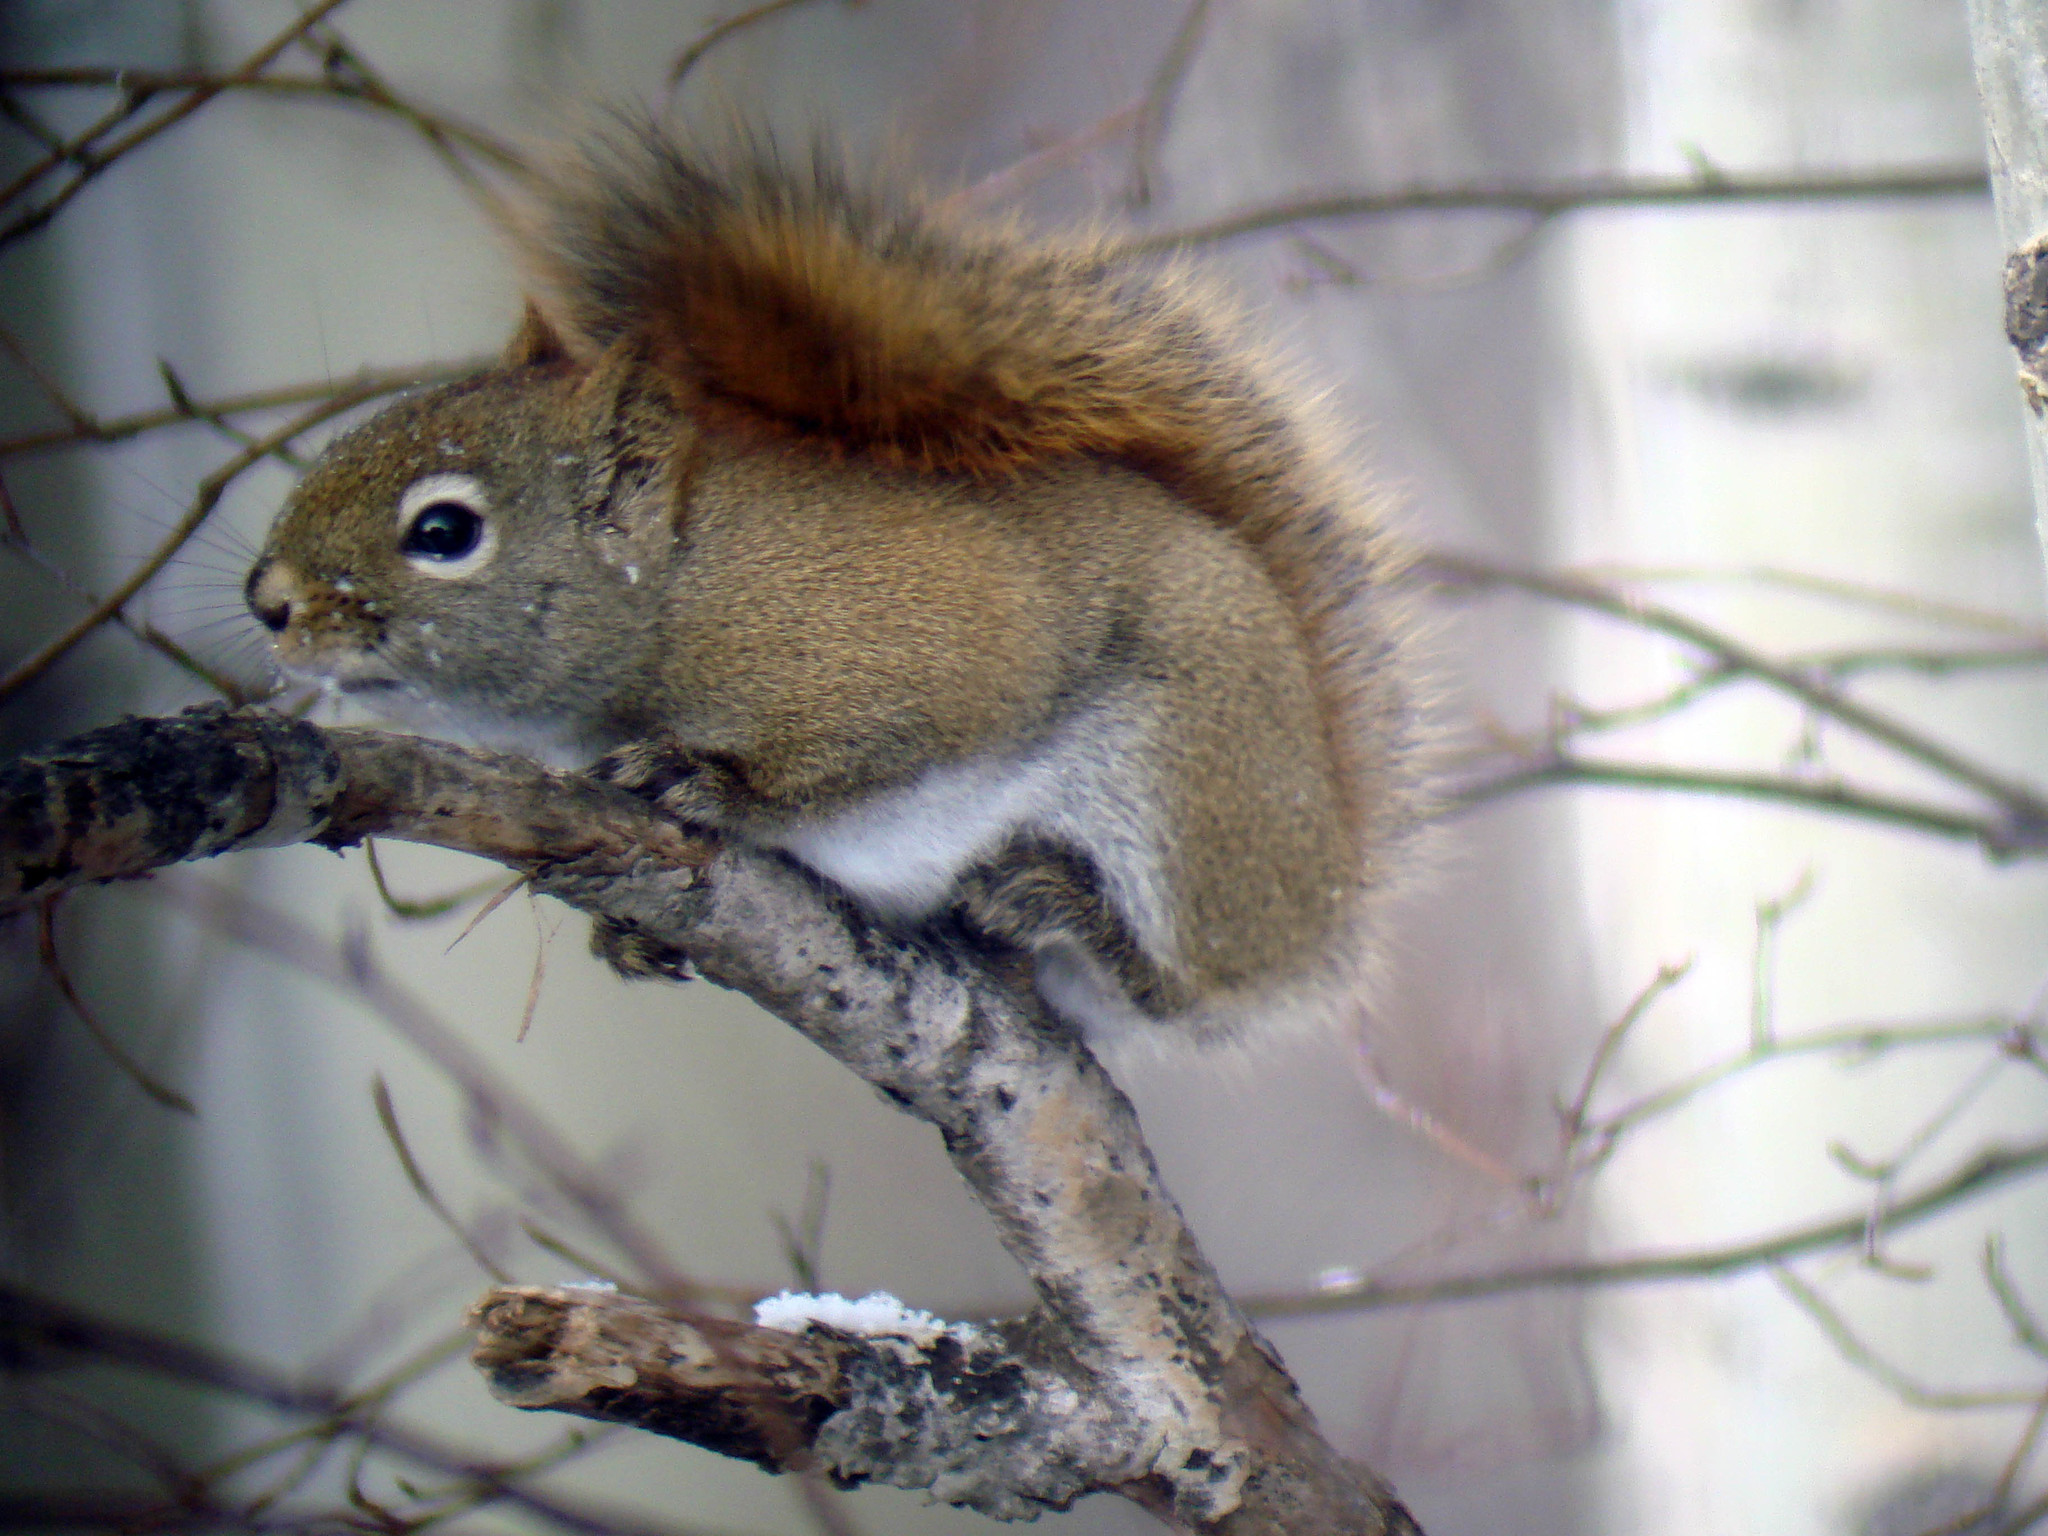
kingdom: Animalia
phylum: Chordata
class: Mammalia
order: Rodentia
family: Sciuridae
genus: Tamiasciurus
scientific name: Tamiasciurus hudsonicus
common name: Red squirrel
